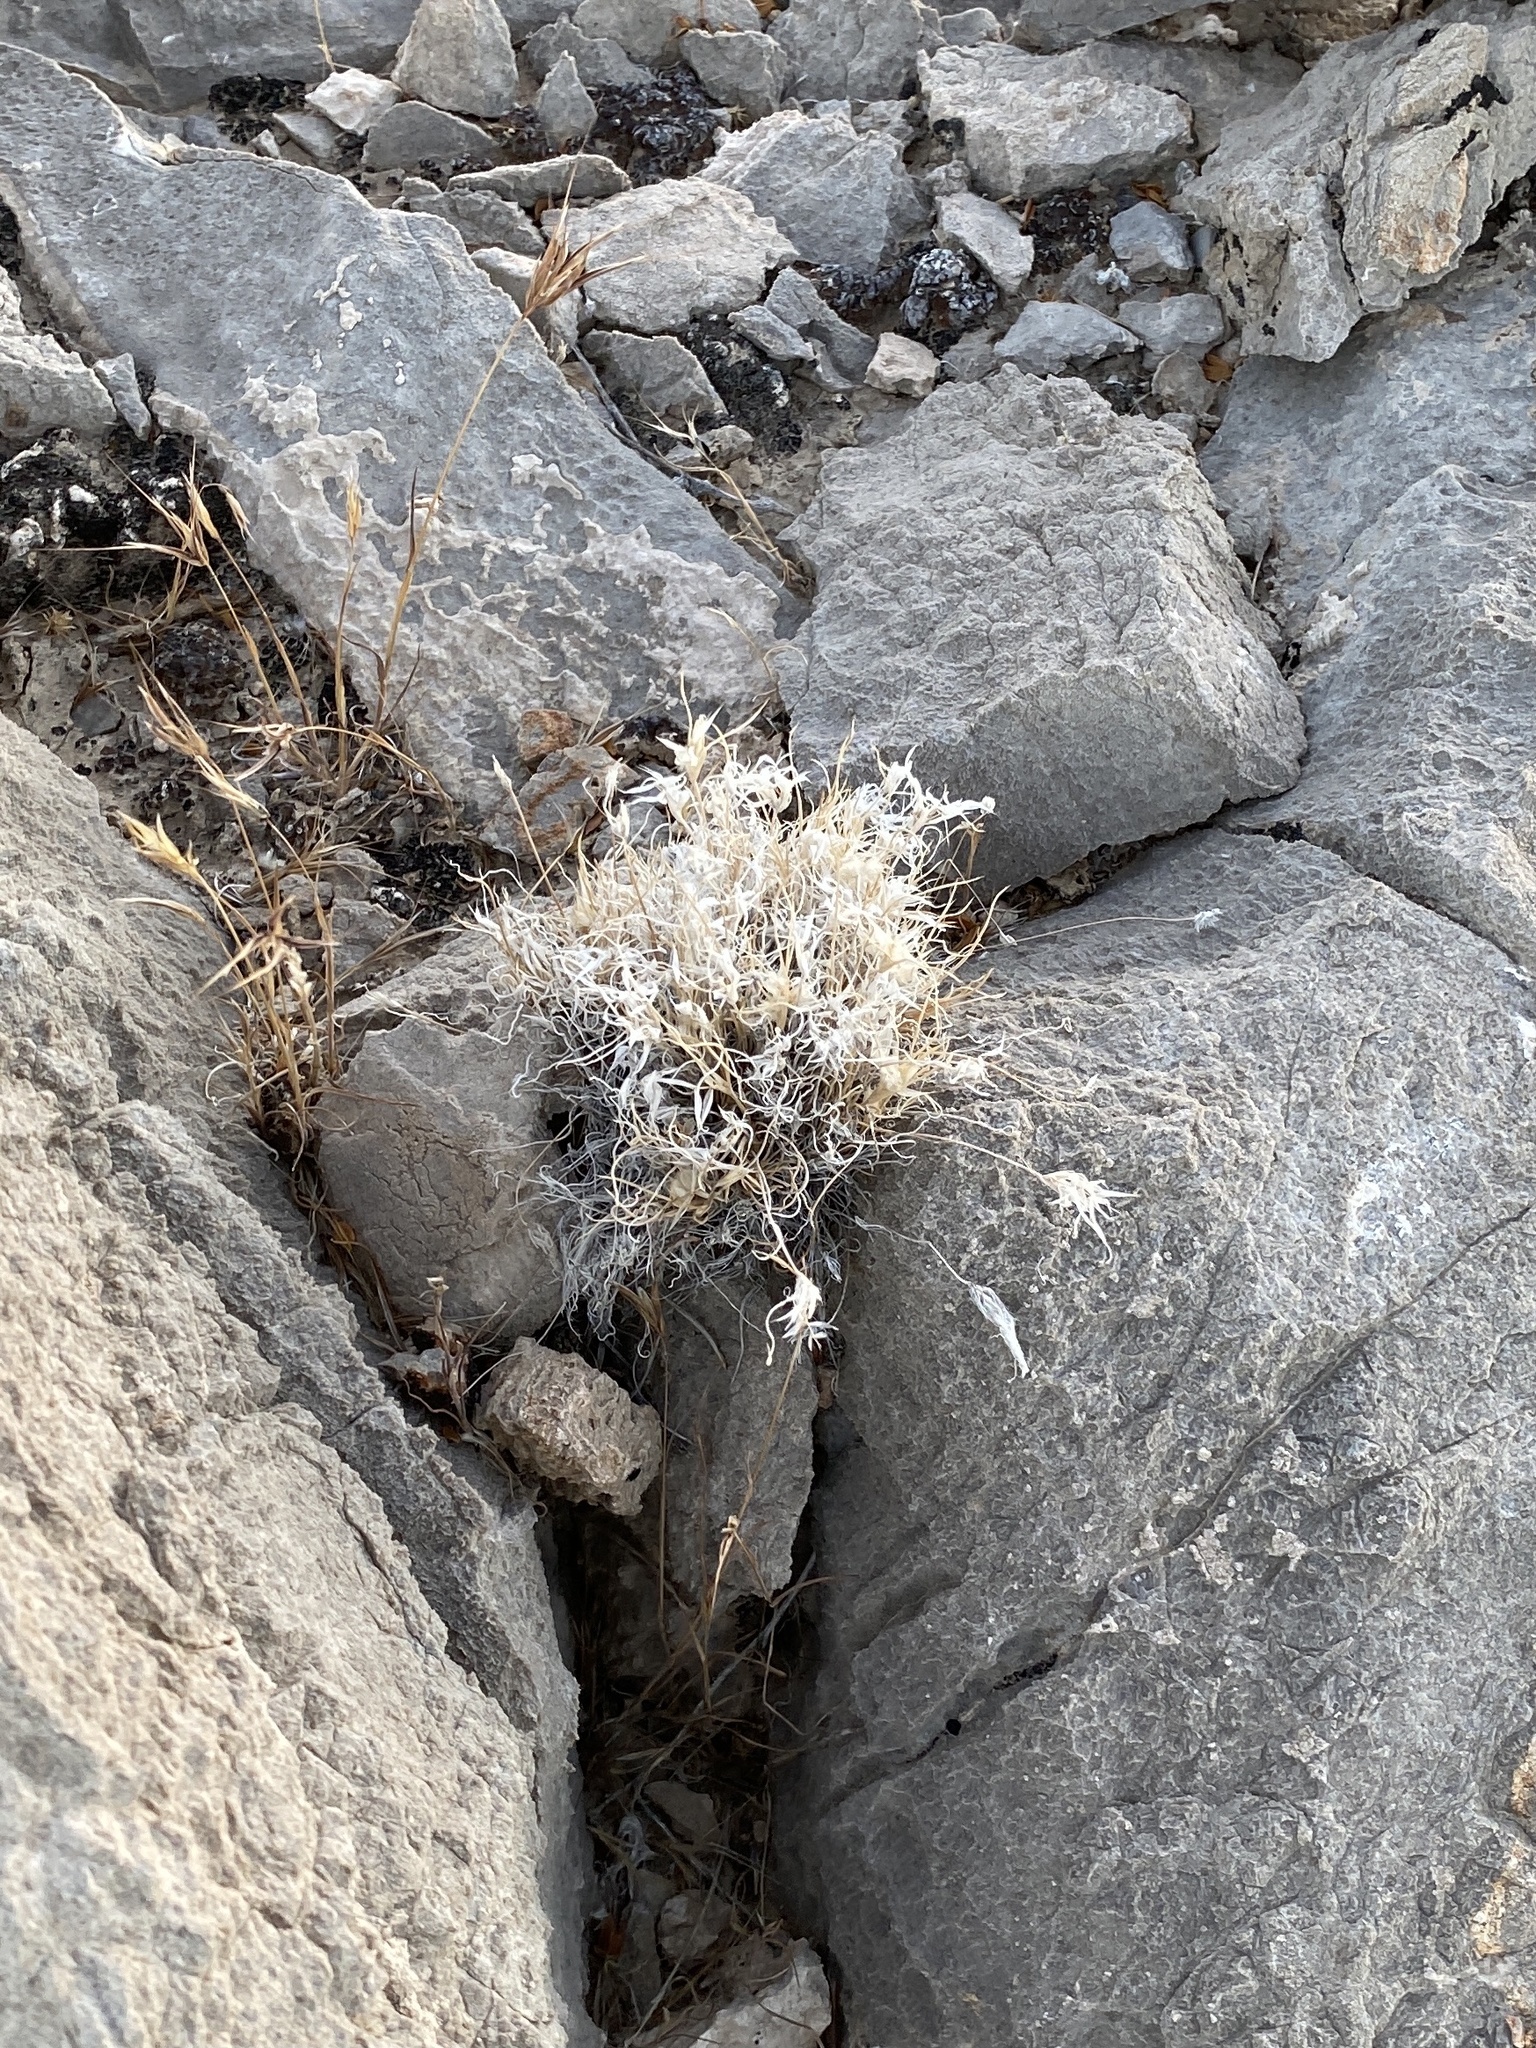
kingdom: Plantae
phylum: Tracheophyta
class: Liliopsida
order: Poales
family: Poaceae
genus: Dasyochloa
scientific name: Dasyochloa pulchella
